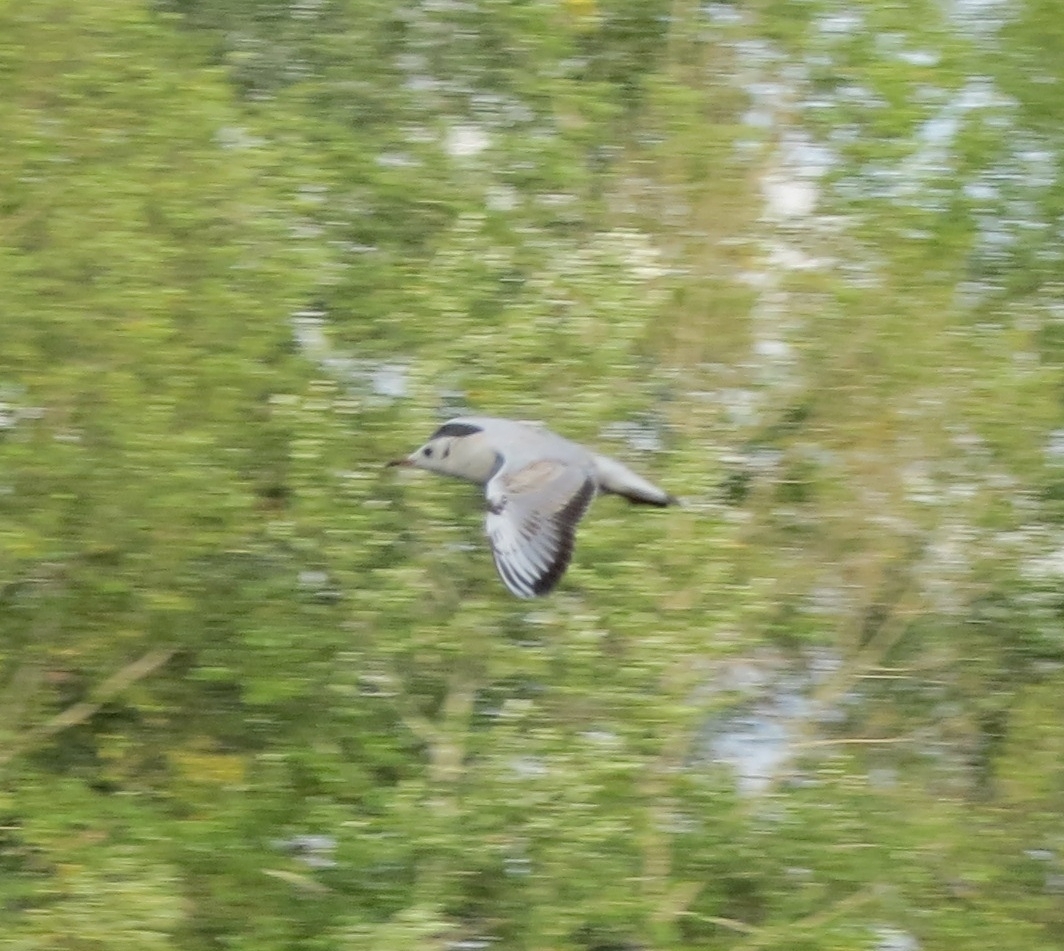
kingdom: Animalia
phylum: Chordata
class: Aves
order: Charadriiformes
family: Laridae
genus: Chroicocephalus
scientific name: Chroicocephalus ridibundus
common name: Black-headed gull
